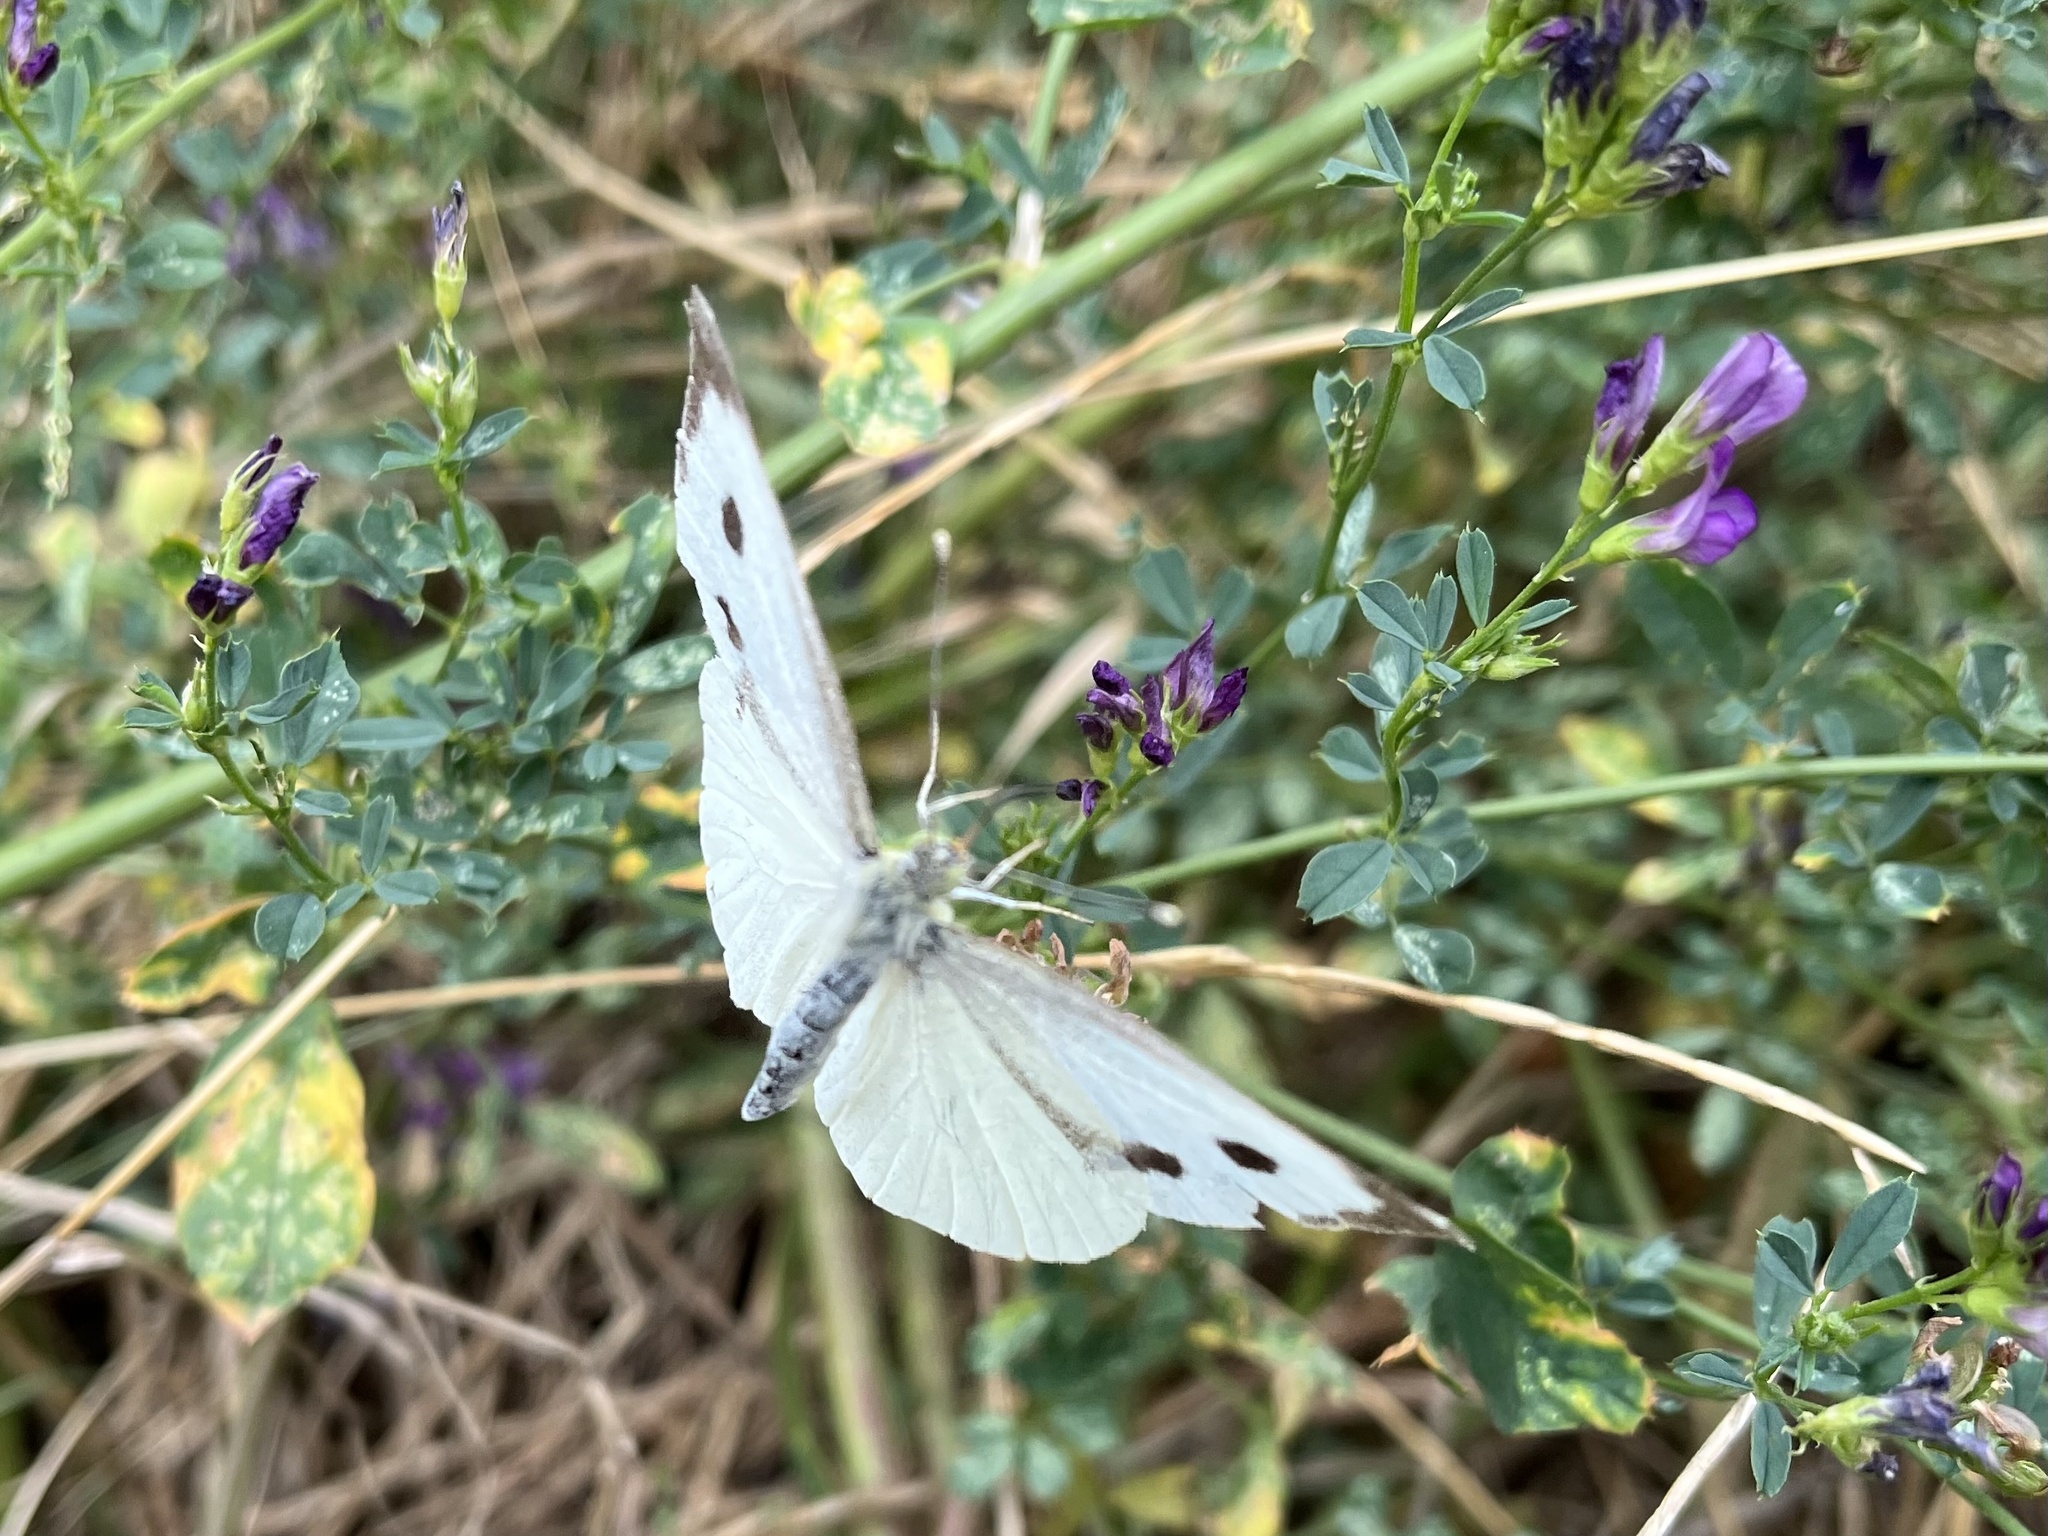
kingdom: Animalia
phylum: Arthropoda
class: Insecta
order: Lepidoptera
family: Pieridae
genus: Pieris
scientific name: Pieris brassicae
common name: Large white
